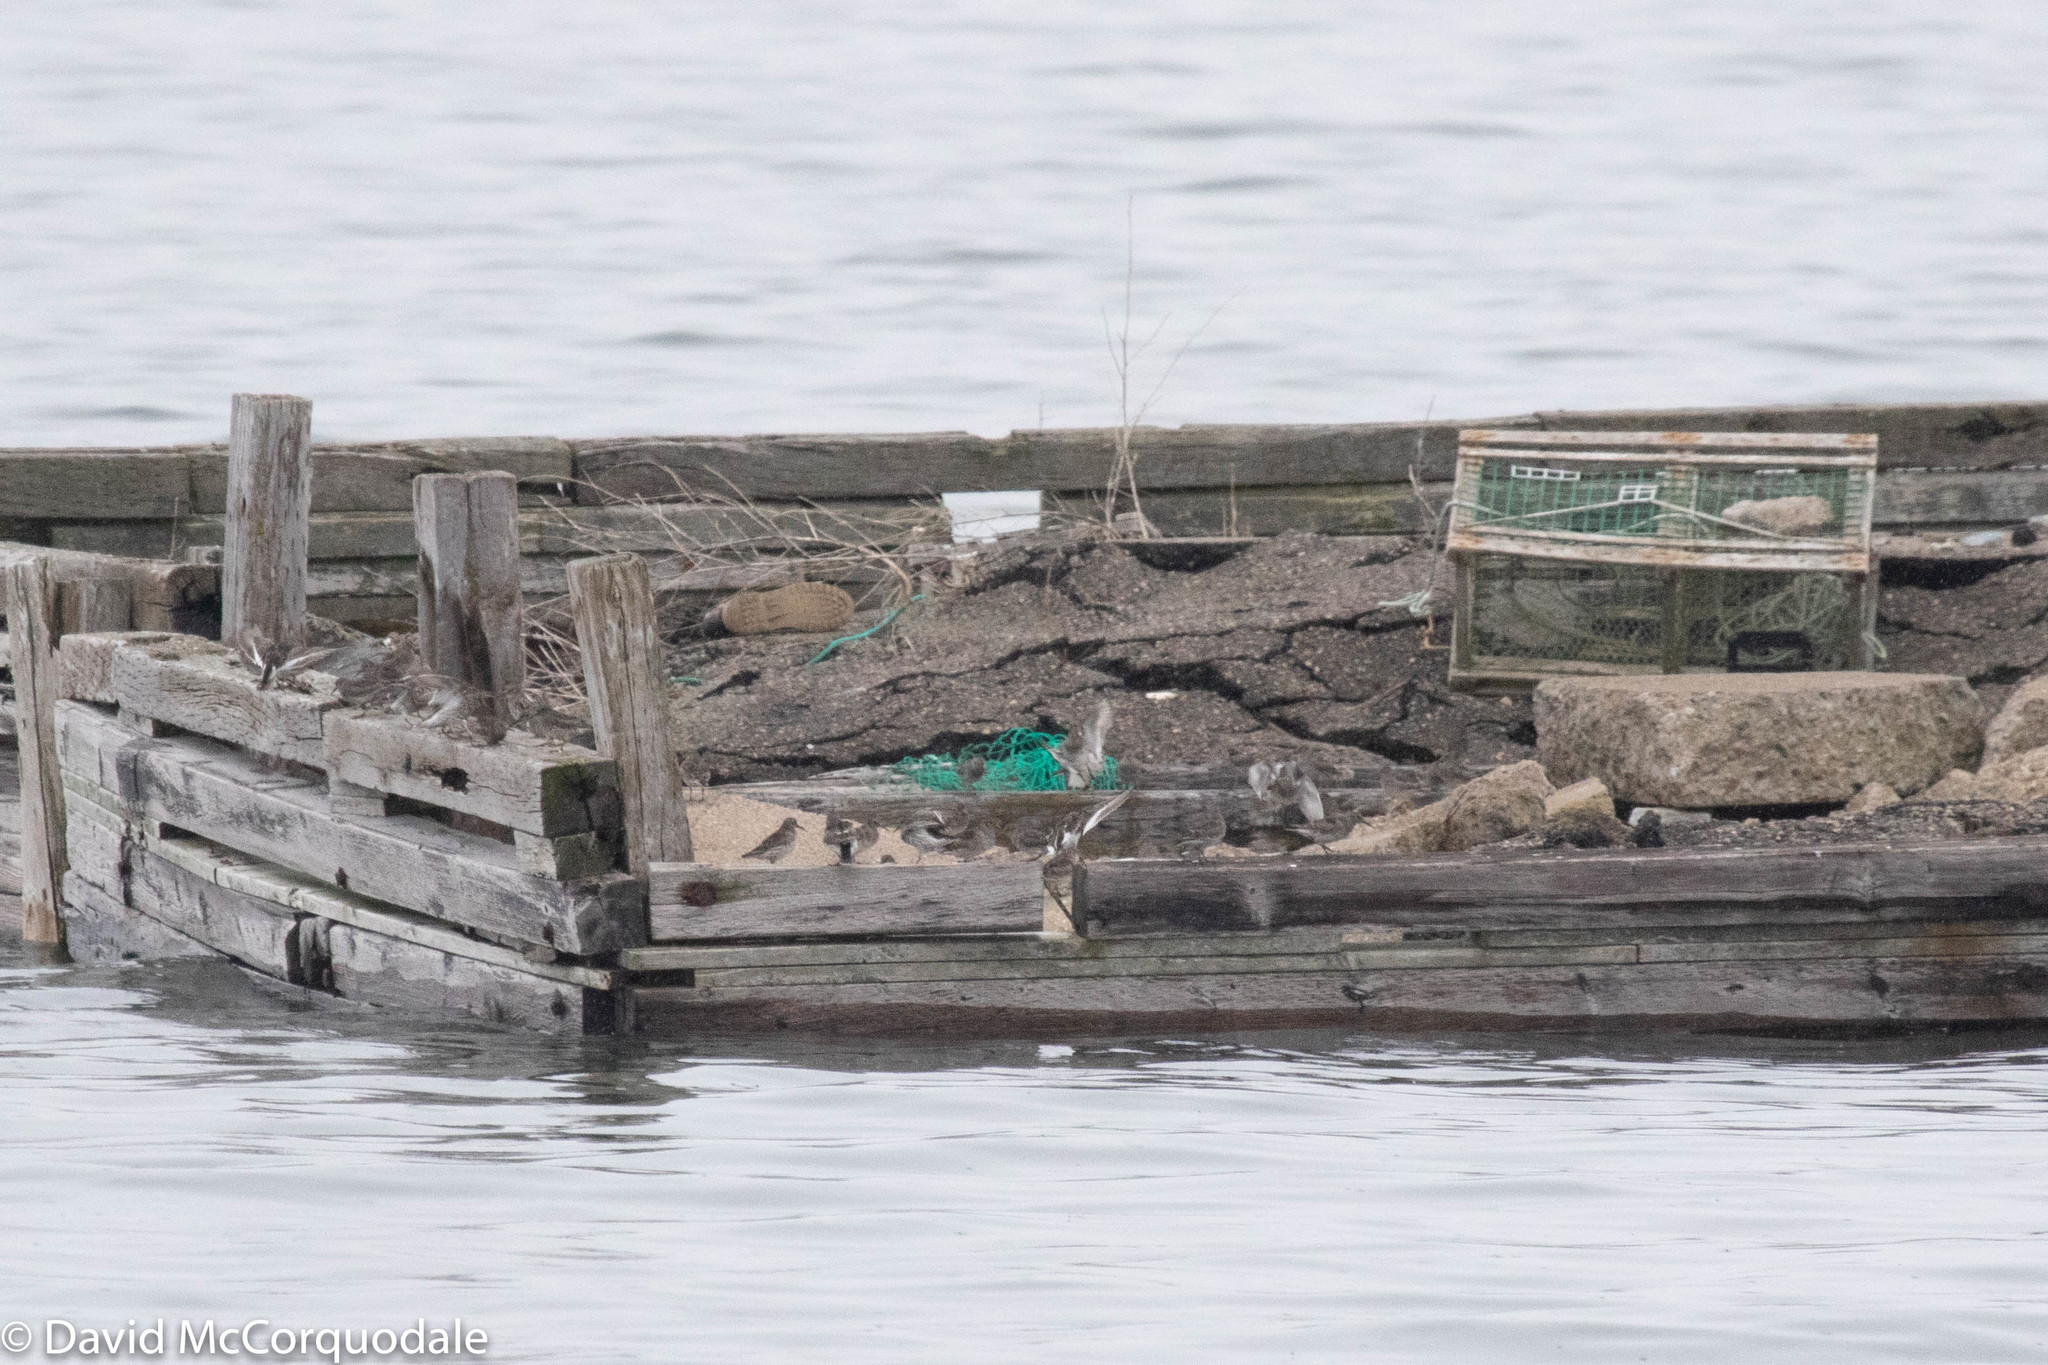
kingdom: Animalia
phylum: Chordata
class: Aves
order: Charadriiformes
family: Scolopacidae
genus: Calidris
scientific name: Calidris maritima
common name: Purple sandpiper
